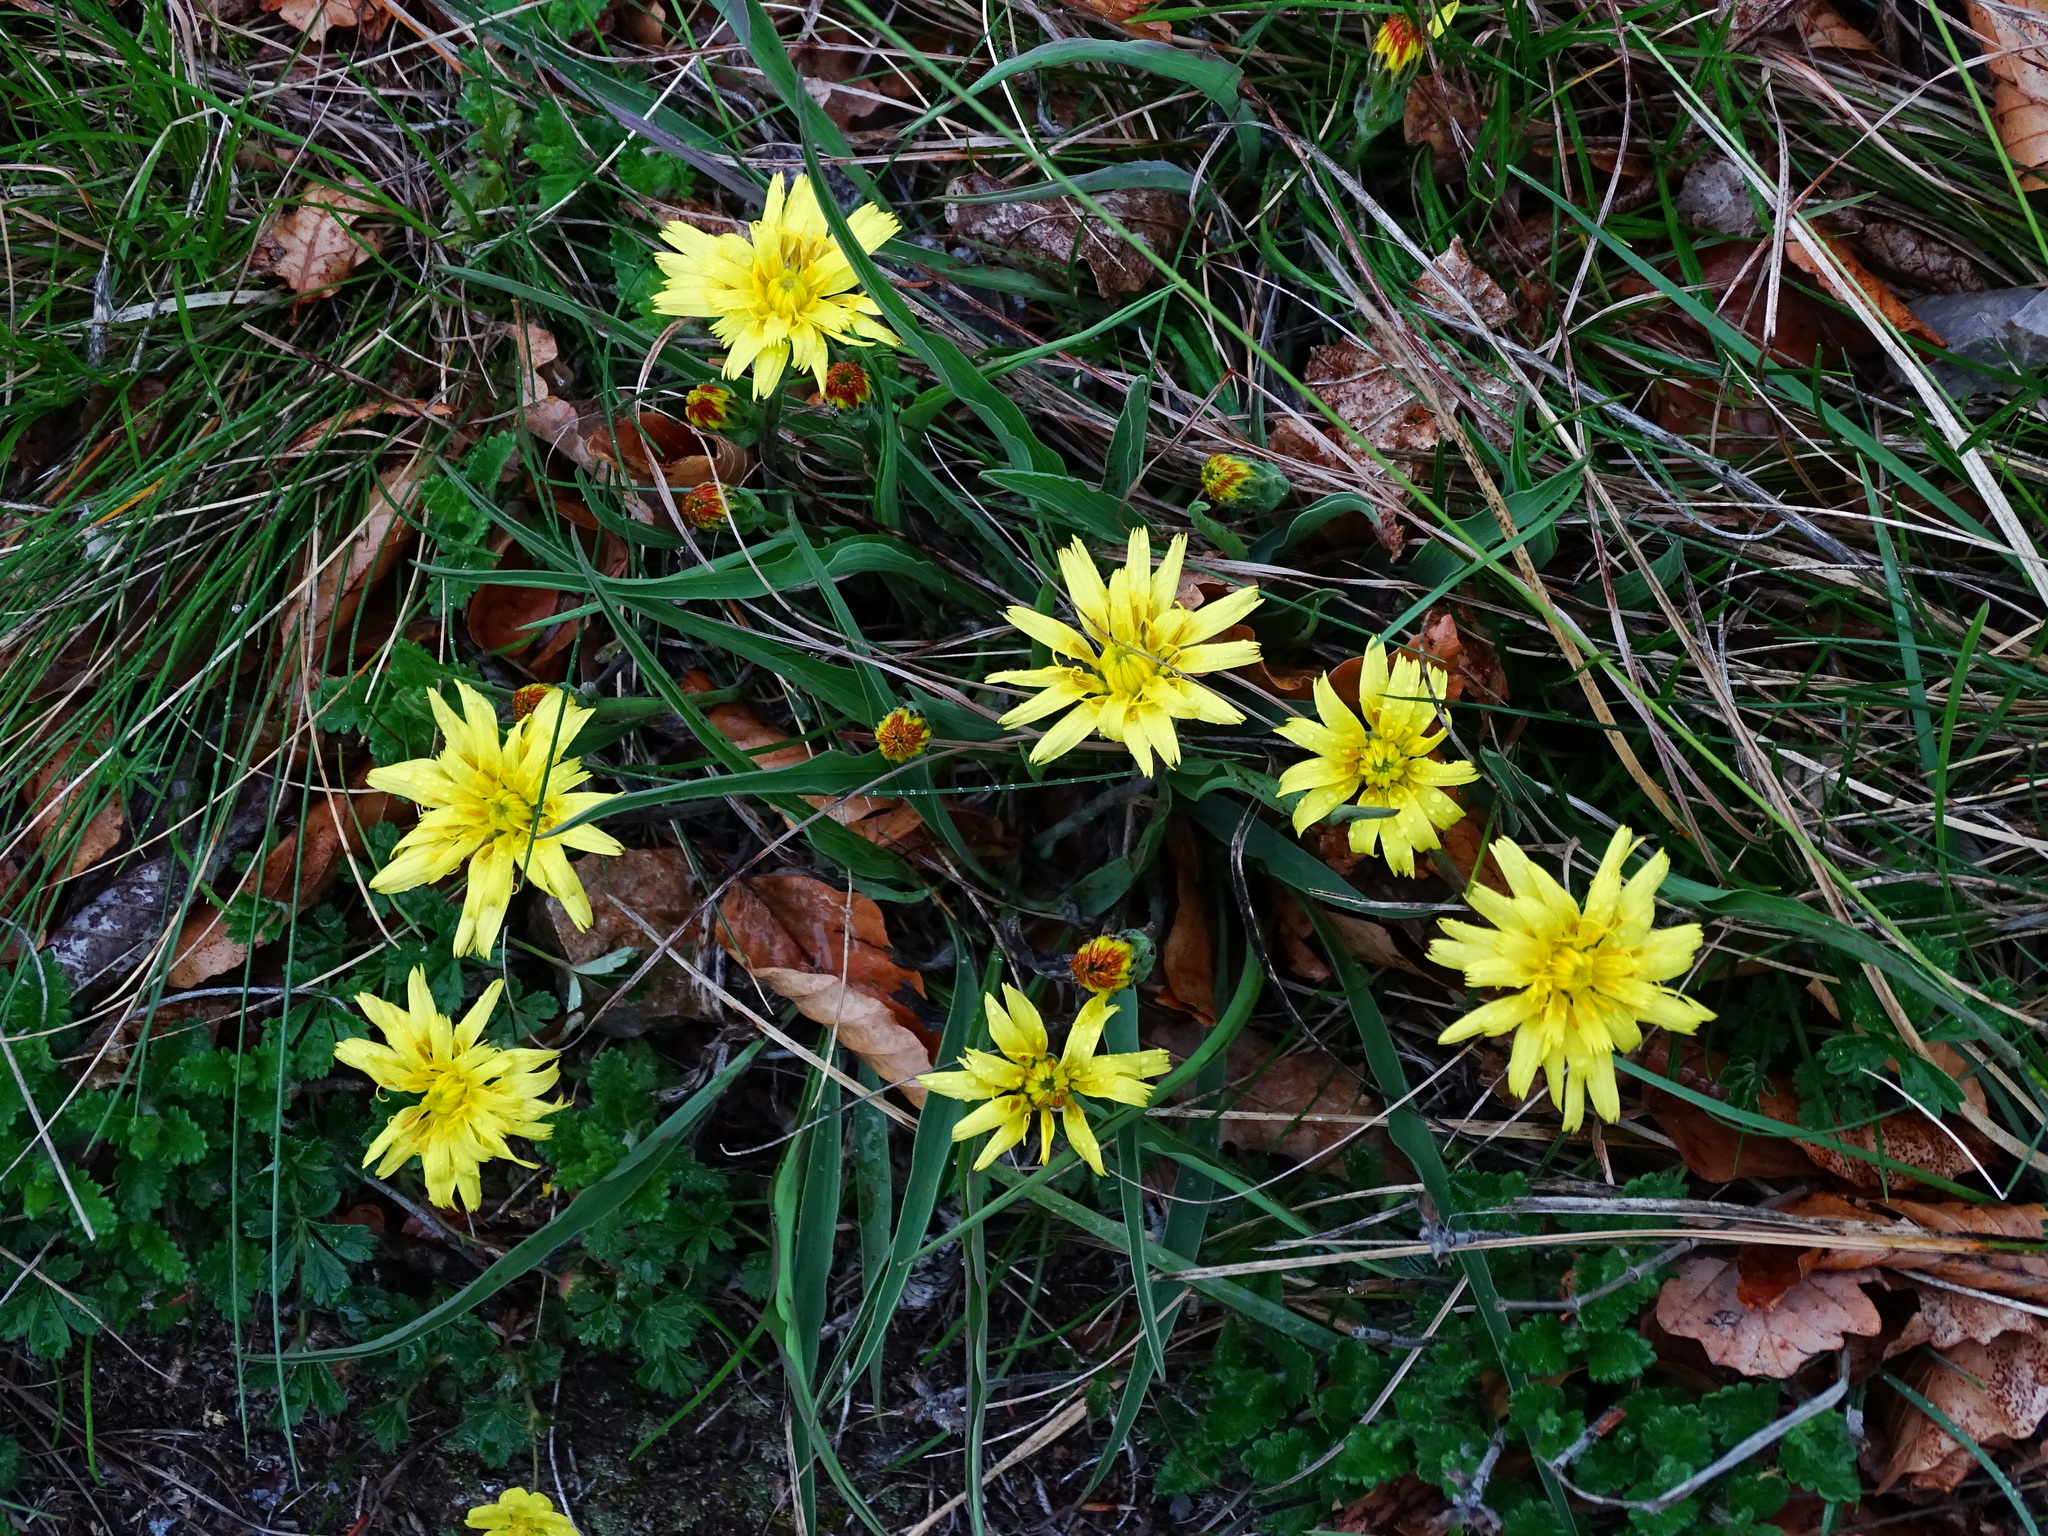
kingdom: Plantae
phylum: Tracheophyta
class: Magnoliopsida
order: Asterales
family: Asteraceae
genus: Takhtajaniantha
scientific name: Takhtajaniantha austriaca
